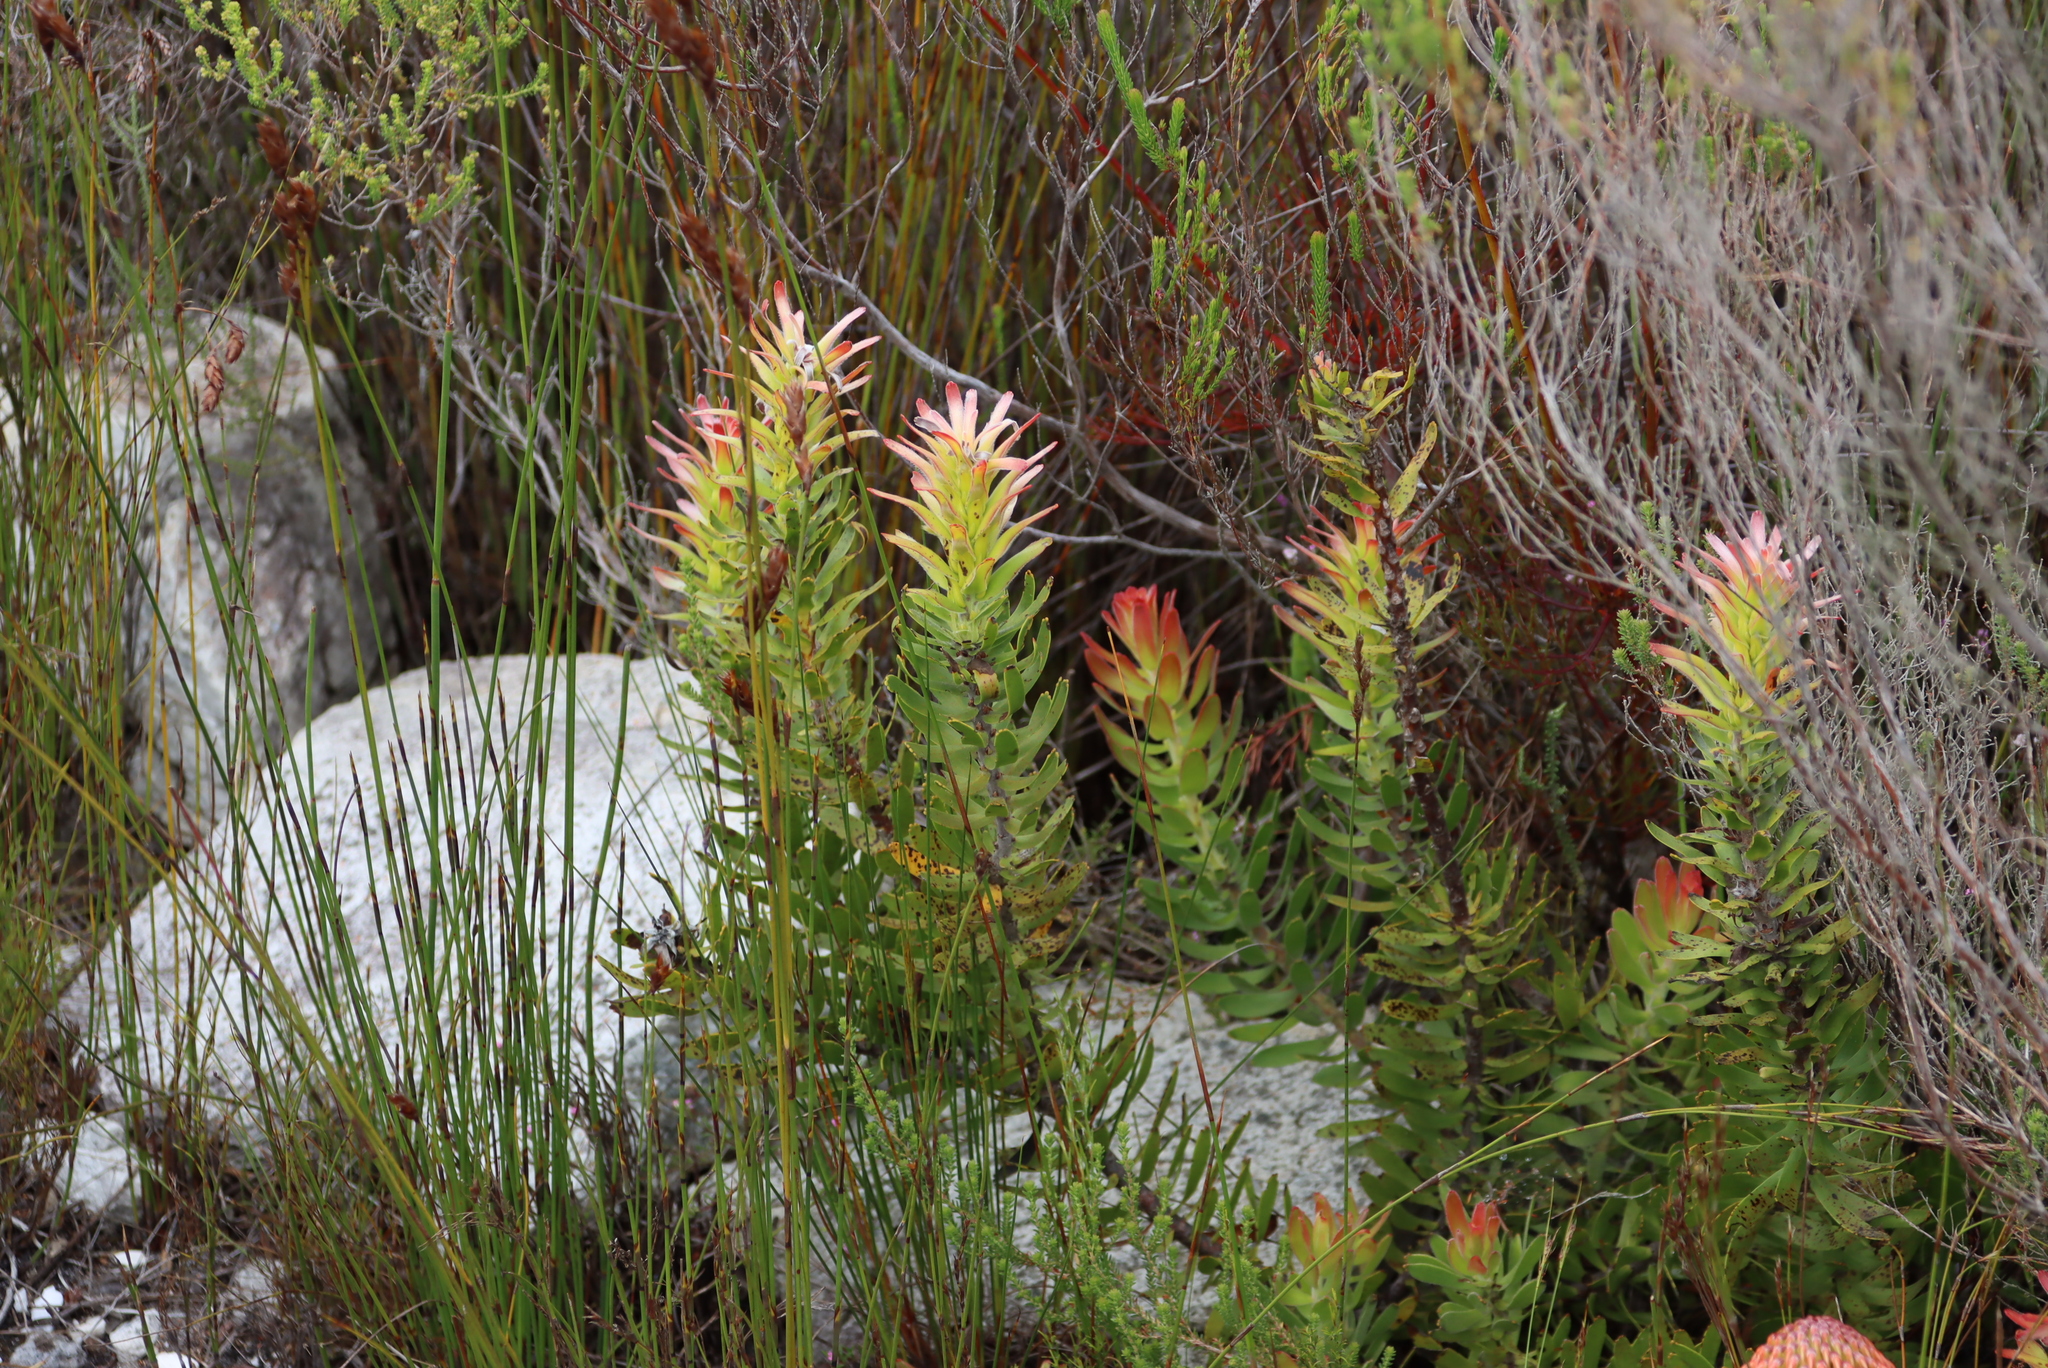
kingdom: Plantae
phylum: Tracheophyta
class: Magnoliopsida
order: Proteales
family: Proteaceae
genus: Mimetes
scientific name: Mimetes cucullatus
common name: Common pagoda
